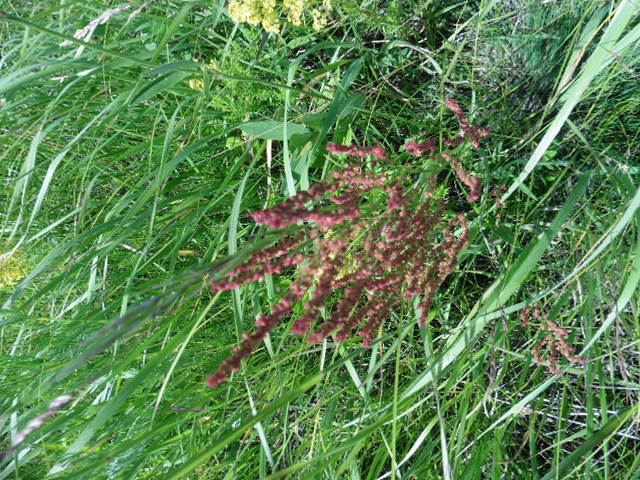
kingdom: Plantae
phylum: Tracheophyta
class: Magnoliopsida
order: Caryophyllales
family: Polygonaceae
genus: Rumex
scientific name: Rumex acetosella
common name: Common sheep sorrel
